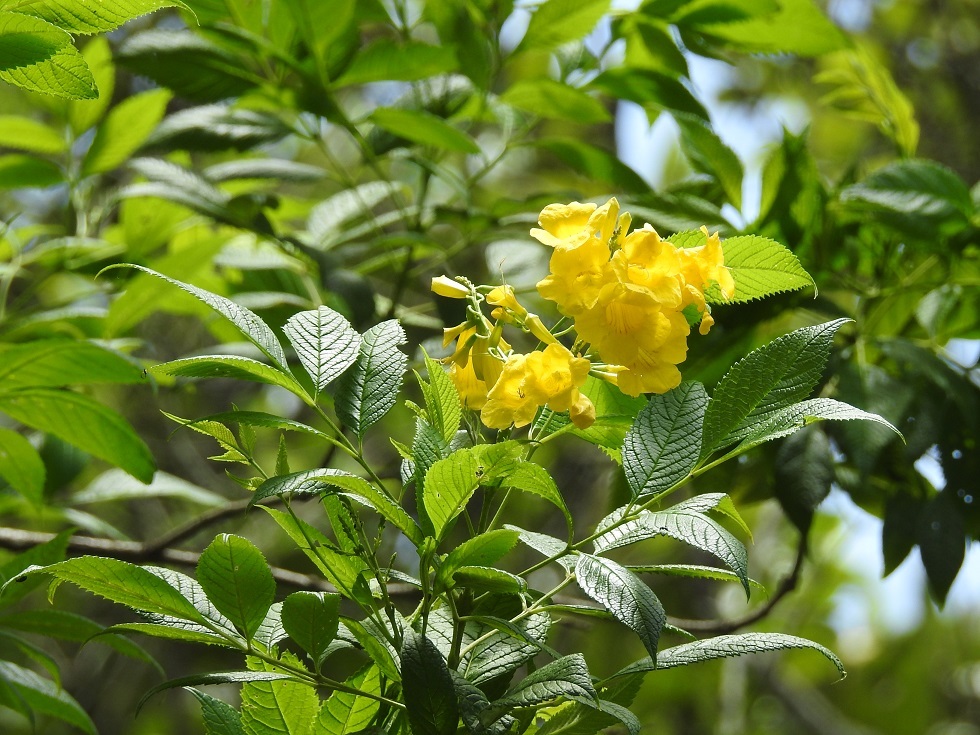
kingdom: Plantae
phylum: Tracheophyta
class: Magnoliopsida
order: Lamiales
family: Bignoniaceae
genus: Tecoma
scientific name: Tecoma stans
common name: Yellow trumpetbush
